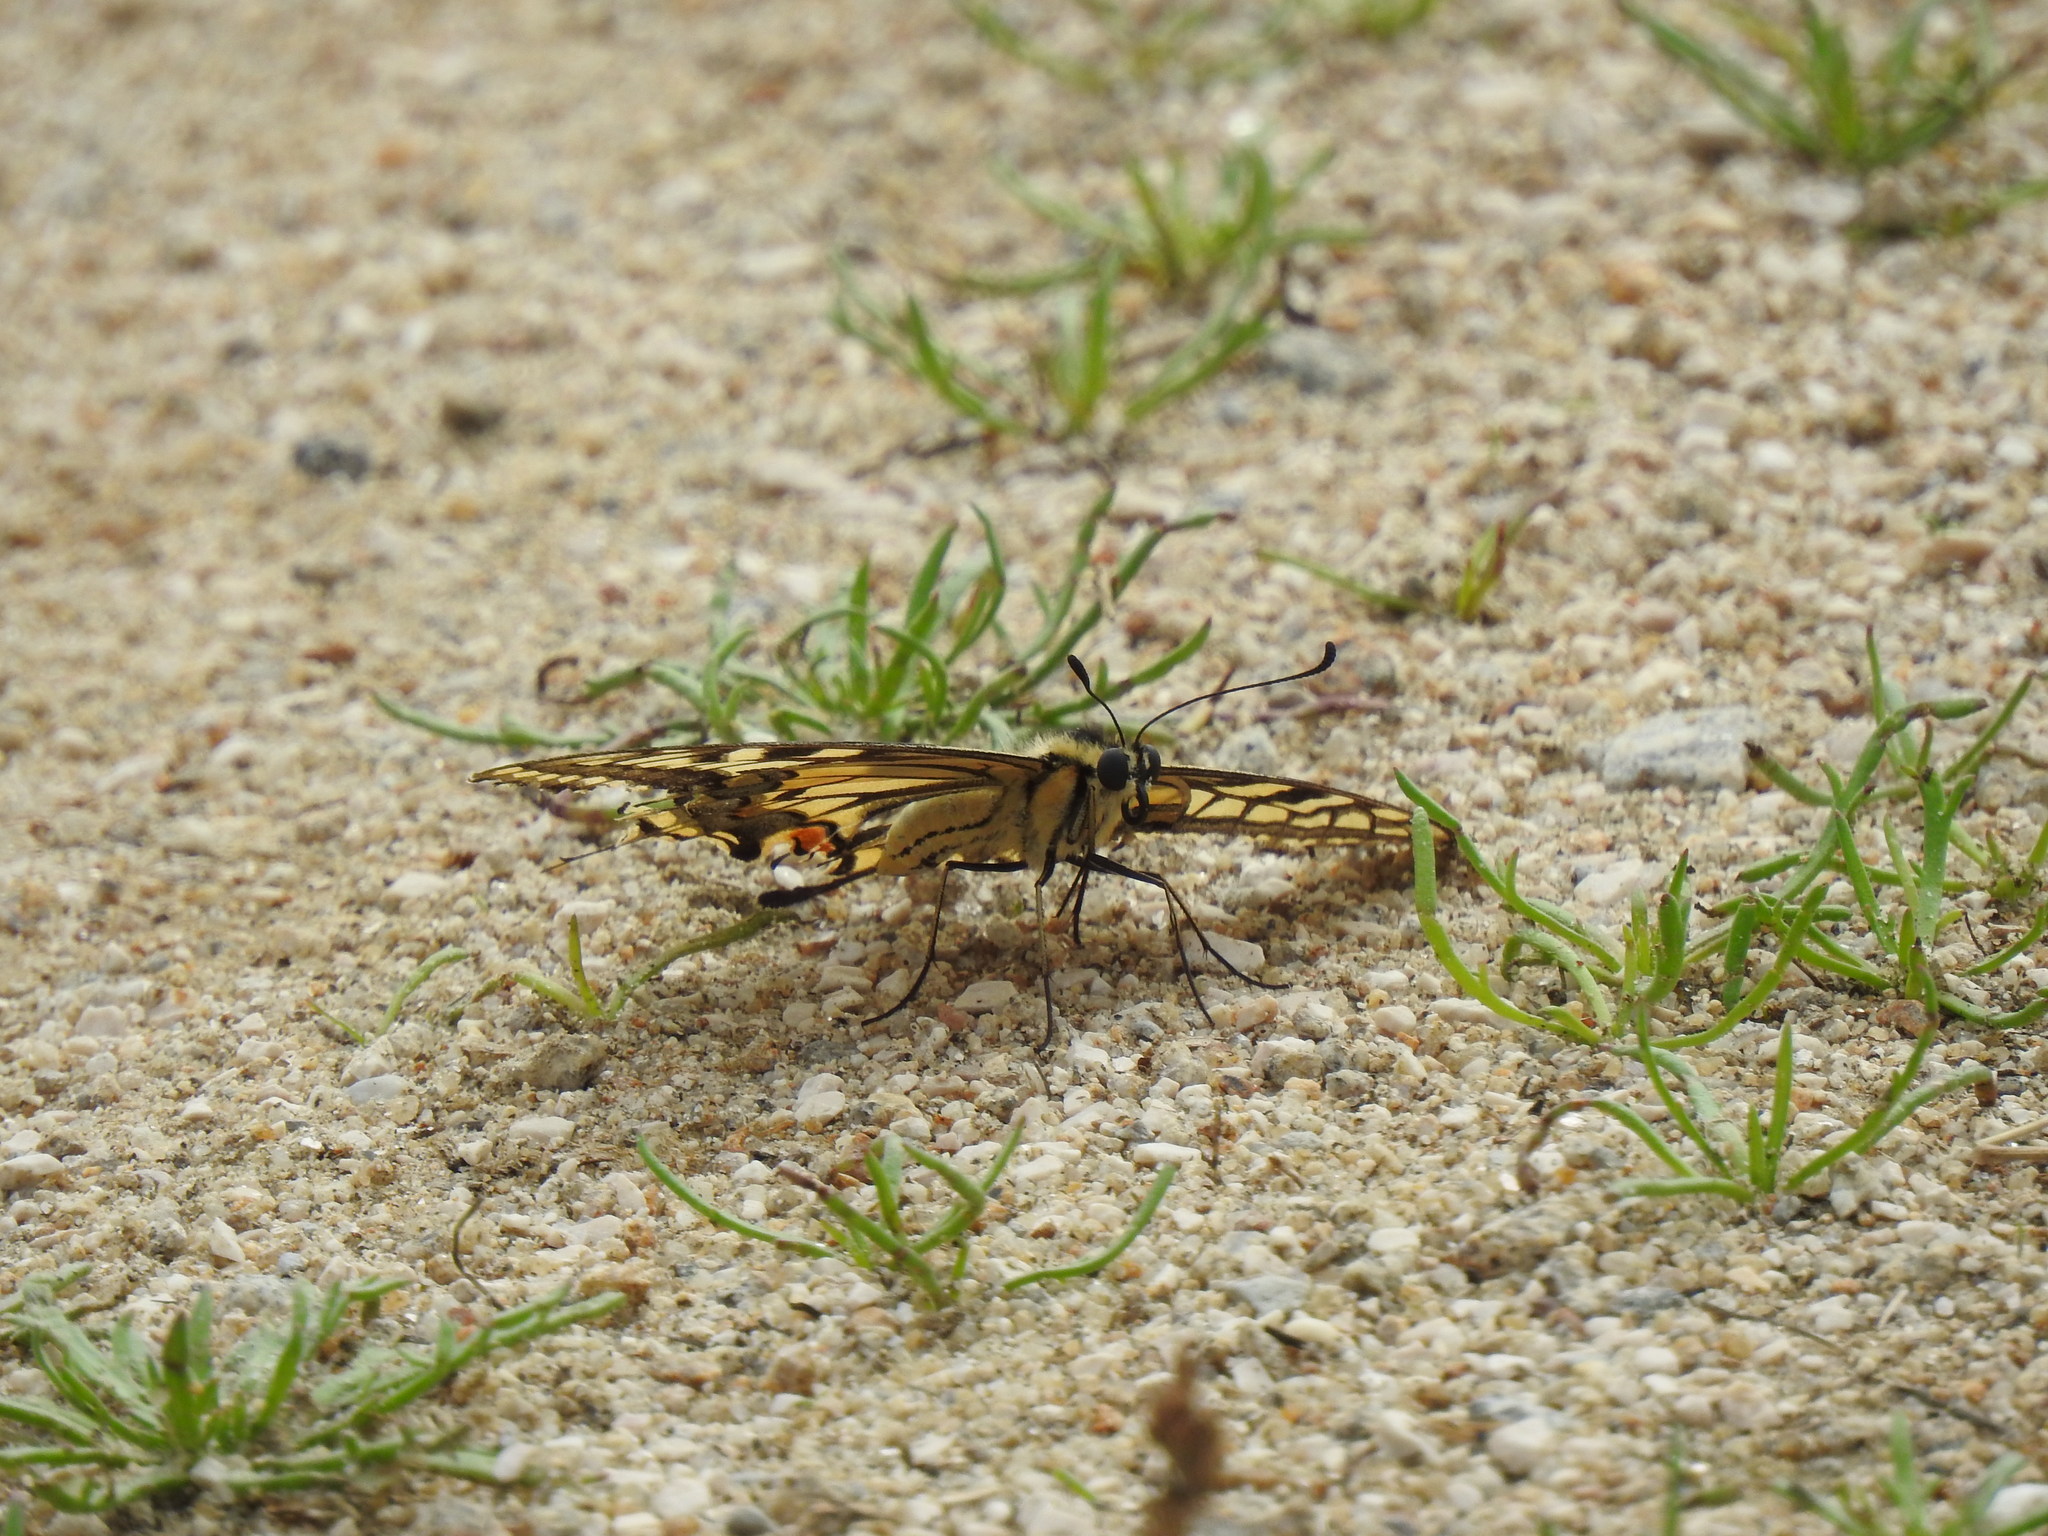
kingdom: Animalia
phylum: Arthropoda
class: Insecta
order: Lepidoptera
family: Papilionidae
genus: Papilio
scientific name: Papilio machaon
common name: Swallowtail
